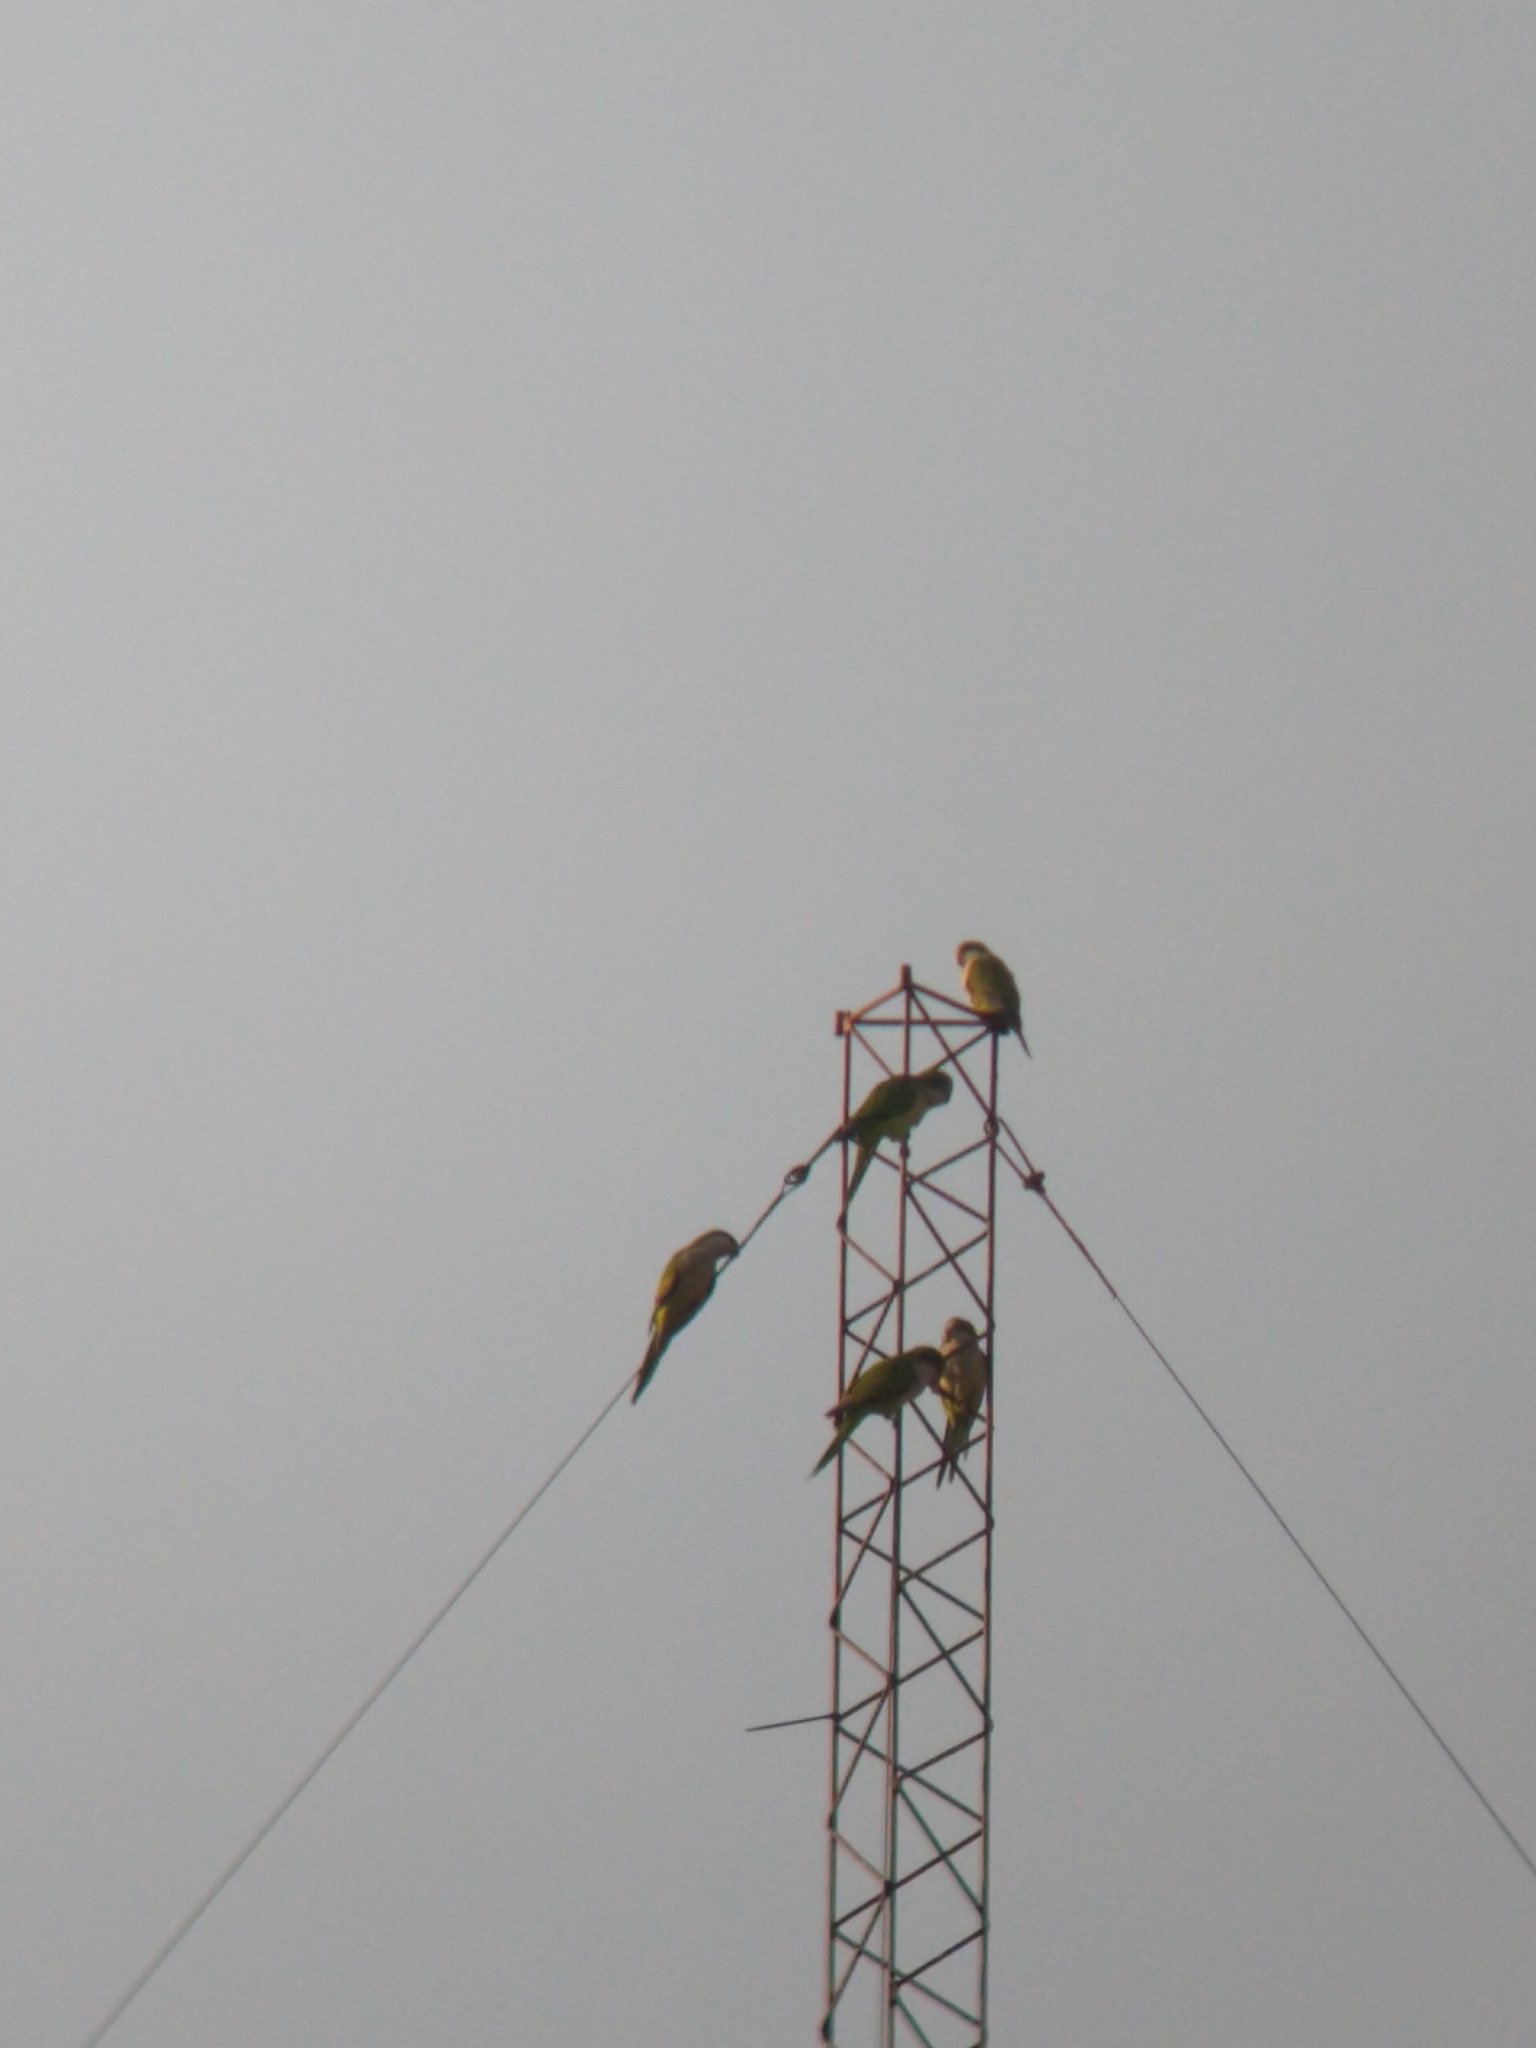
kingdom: Animalia
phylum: Chordata
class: Aves
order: Psittaciformes
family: Psittacidae
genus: Myiopsitta
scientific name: Myiopsitta monachus
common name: Monk parakeet
